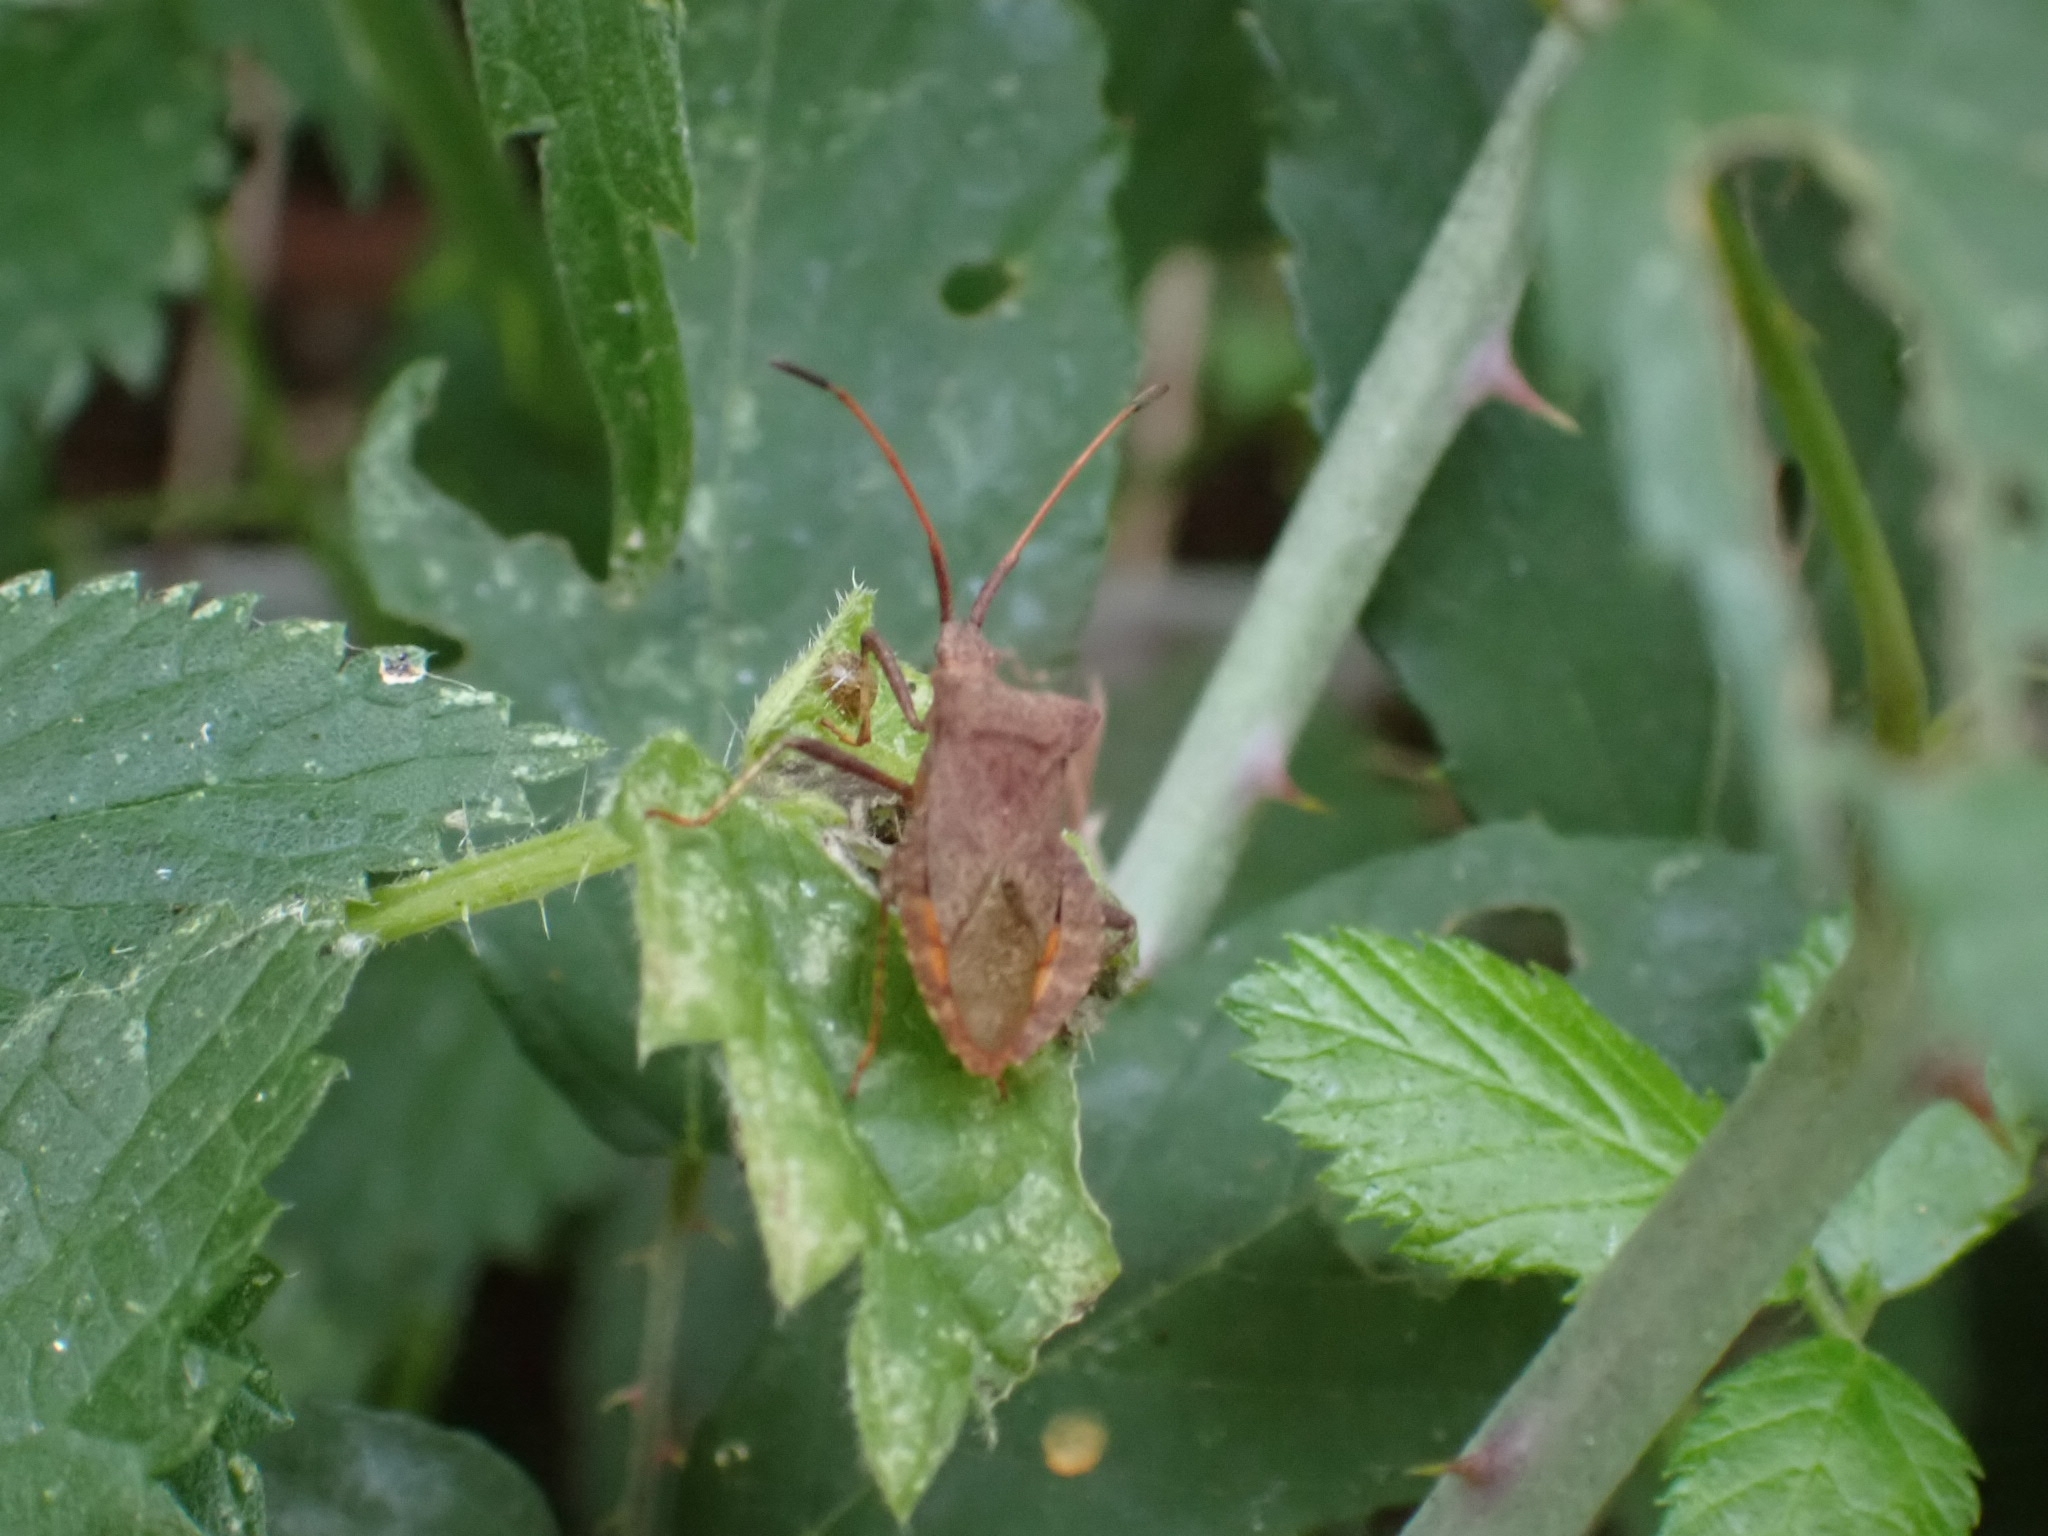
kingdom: Animalia
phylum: Arthropoda
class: Insecta
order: Hemiptera
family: Coreidae
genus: Coreus
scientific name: Coreus marginatus
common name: Dock bug
